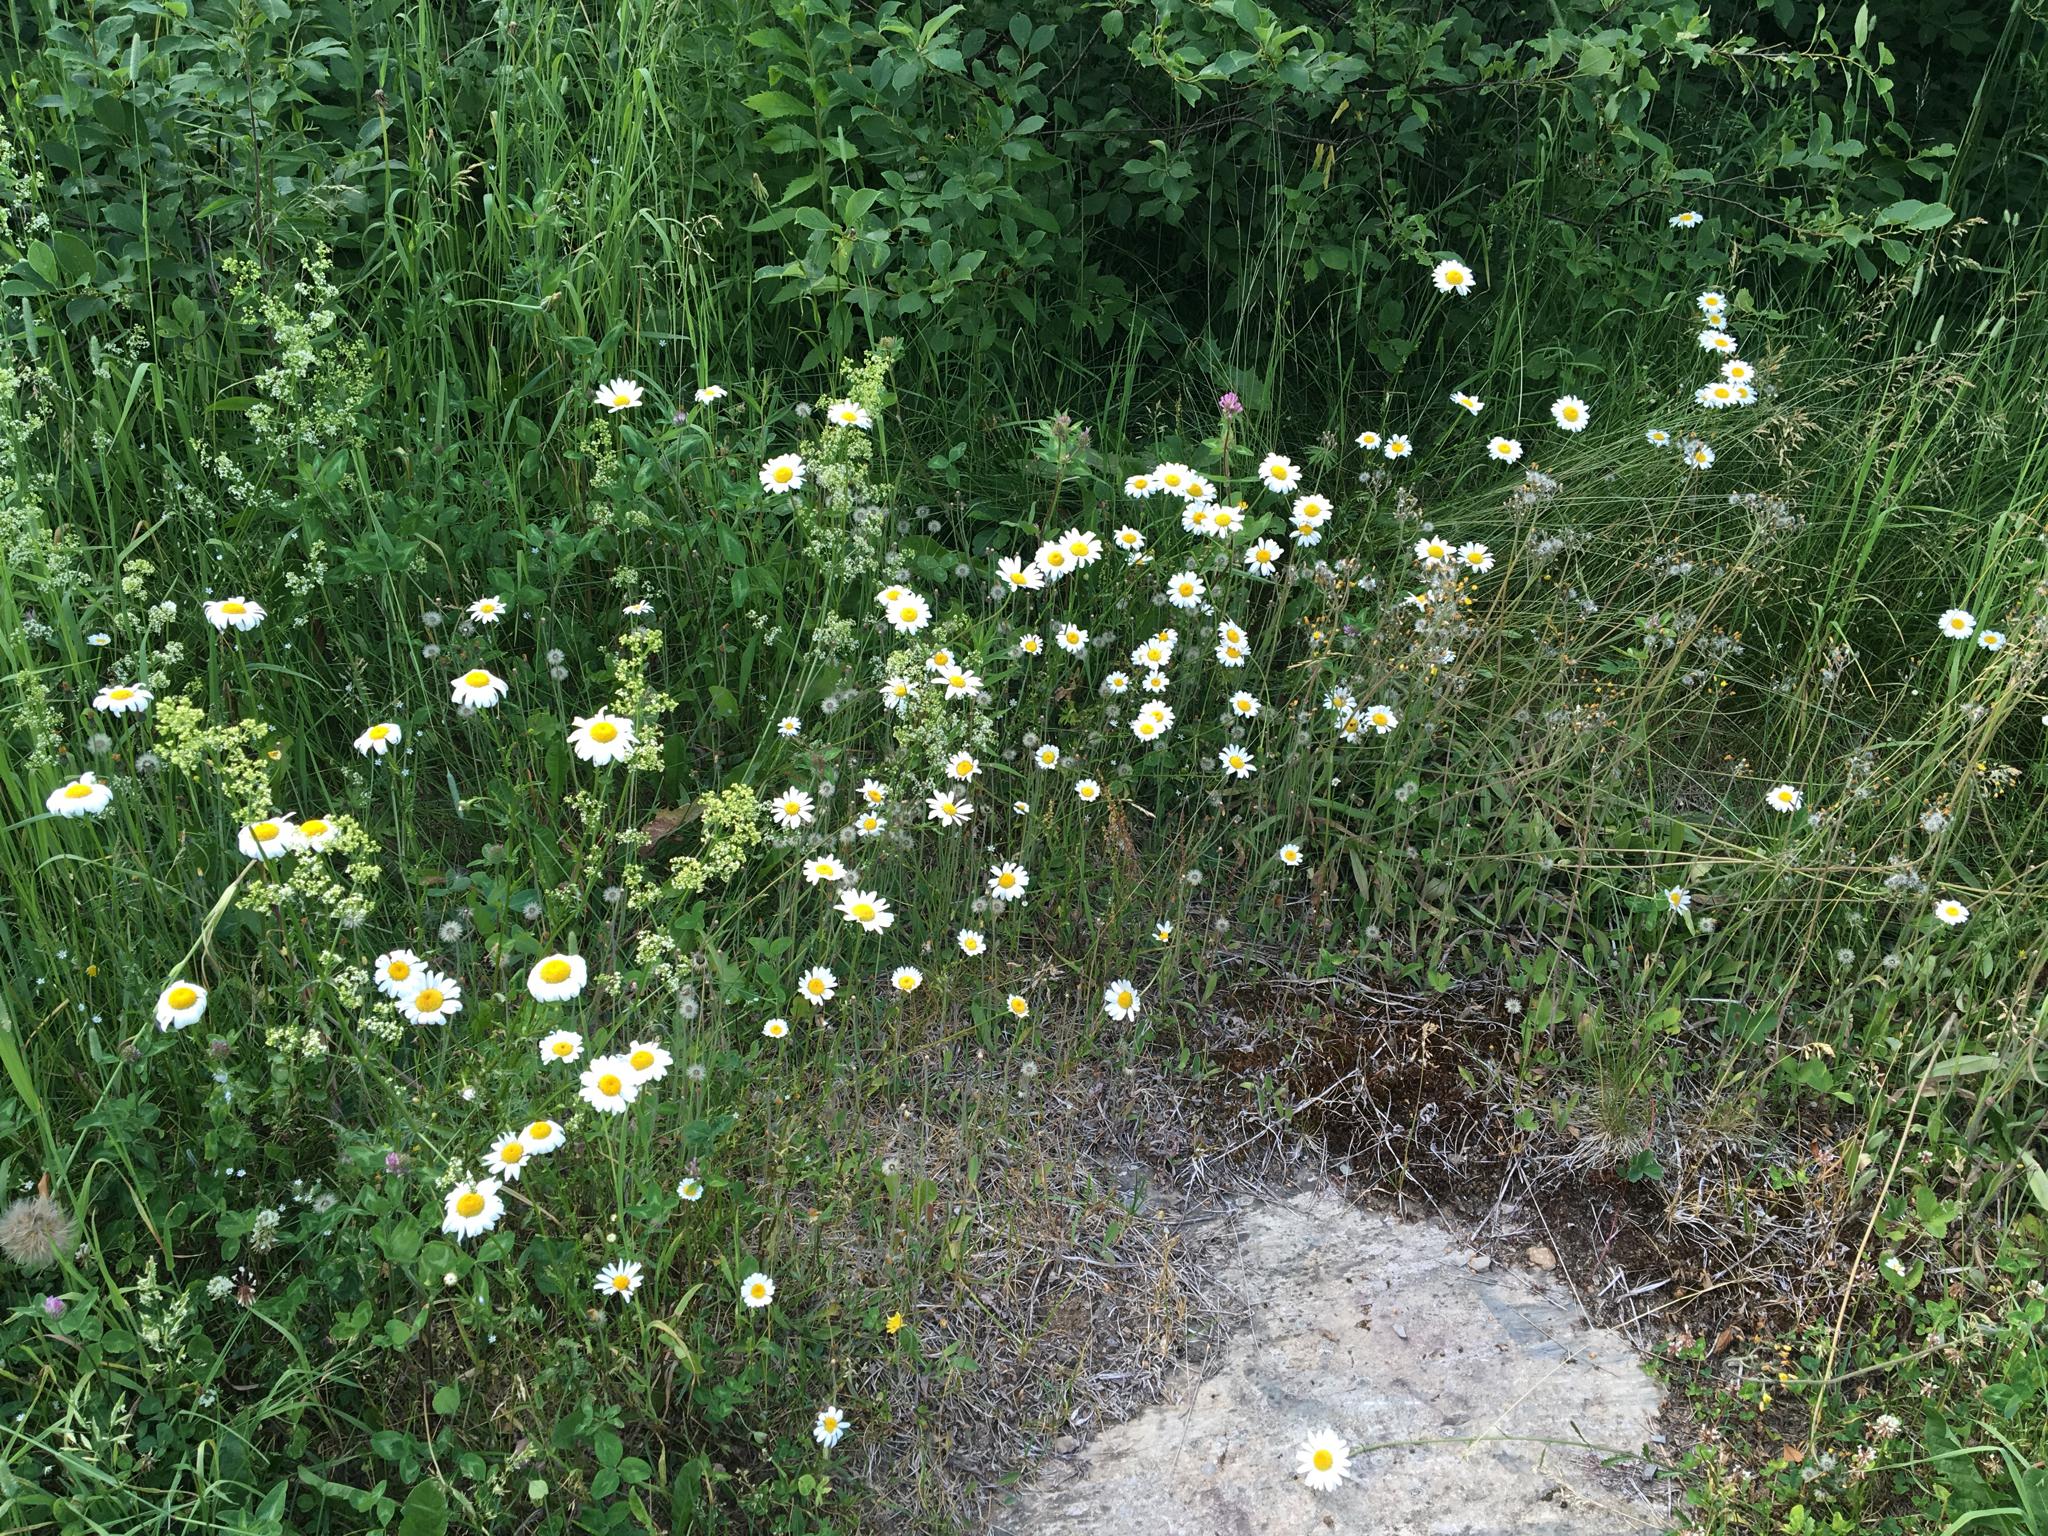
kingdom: Plantae
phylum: Tracheophyta
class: Magnoliopsida
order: Asterales
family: Asteraceae
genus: Leucanthemum
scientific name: Leucanthemum vulgare
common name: Oxeye daisy
